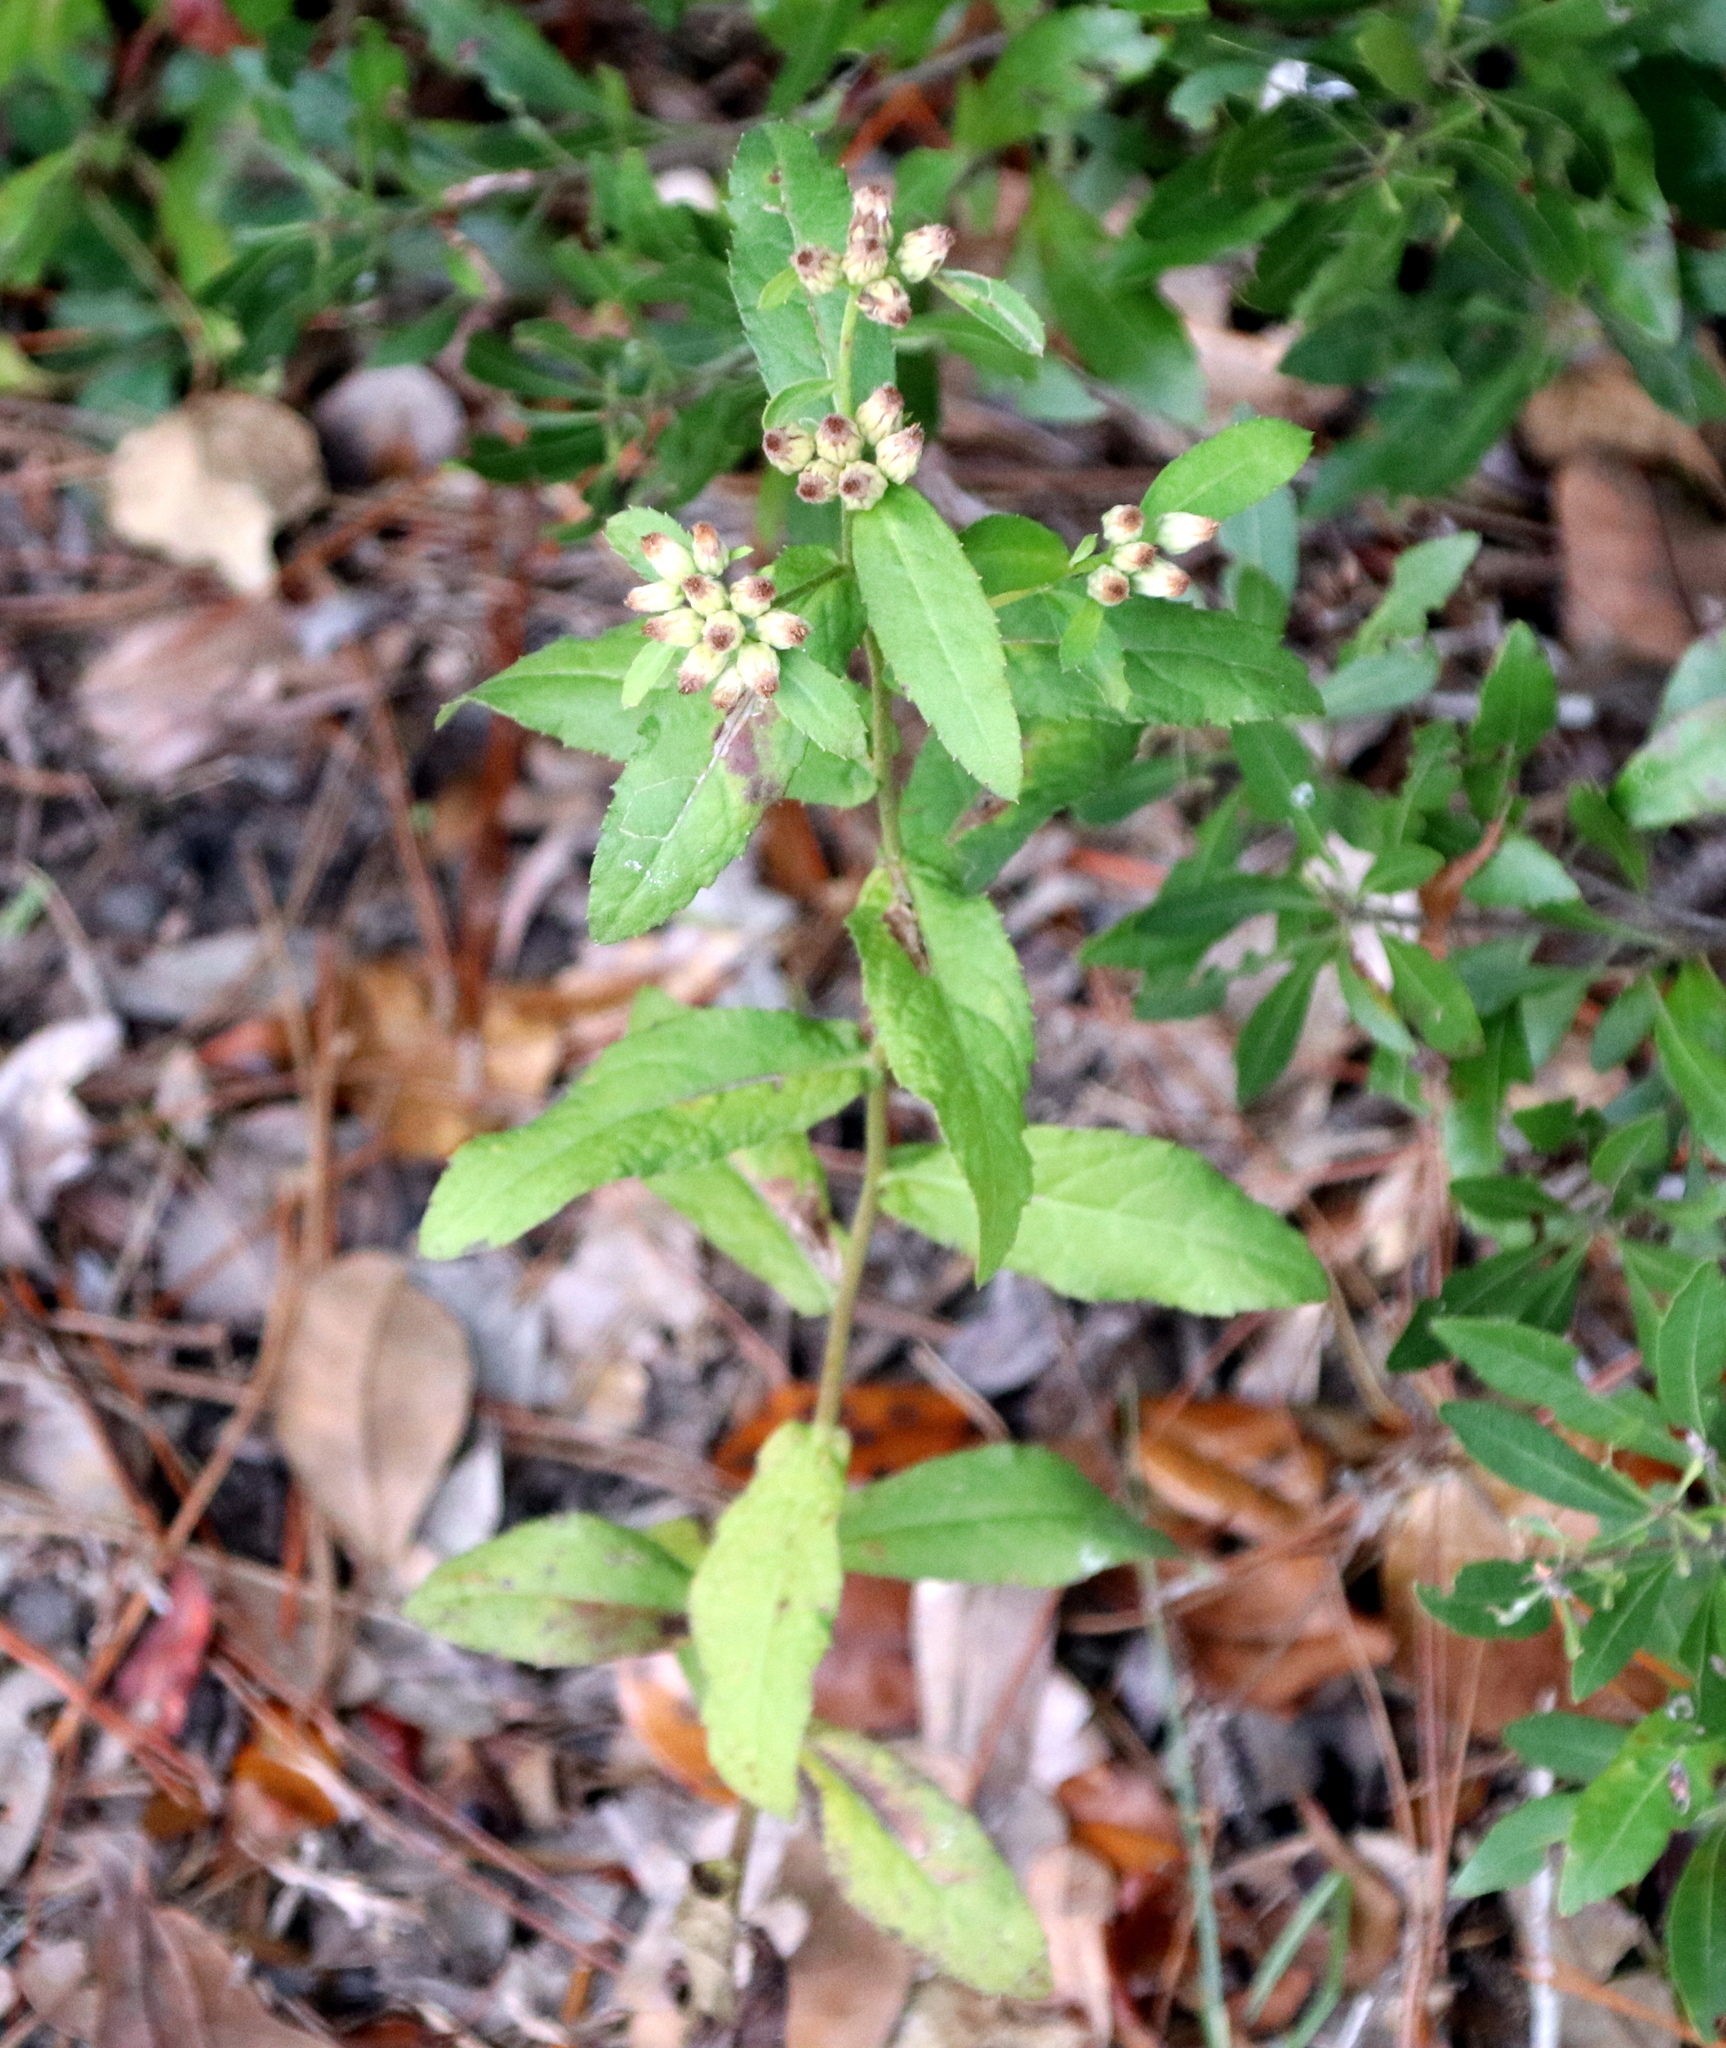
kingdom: Plantae
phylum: Tracheophyta
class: Magnoliopsida
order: Asterales
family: Asteraceae
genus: Pluchea
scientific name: Pluchea foetida
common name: Stinking camphorweed
